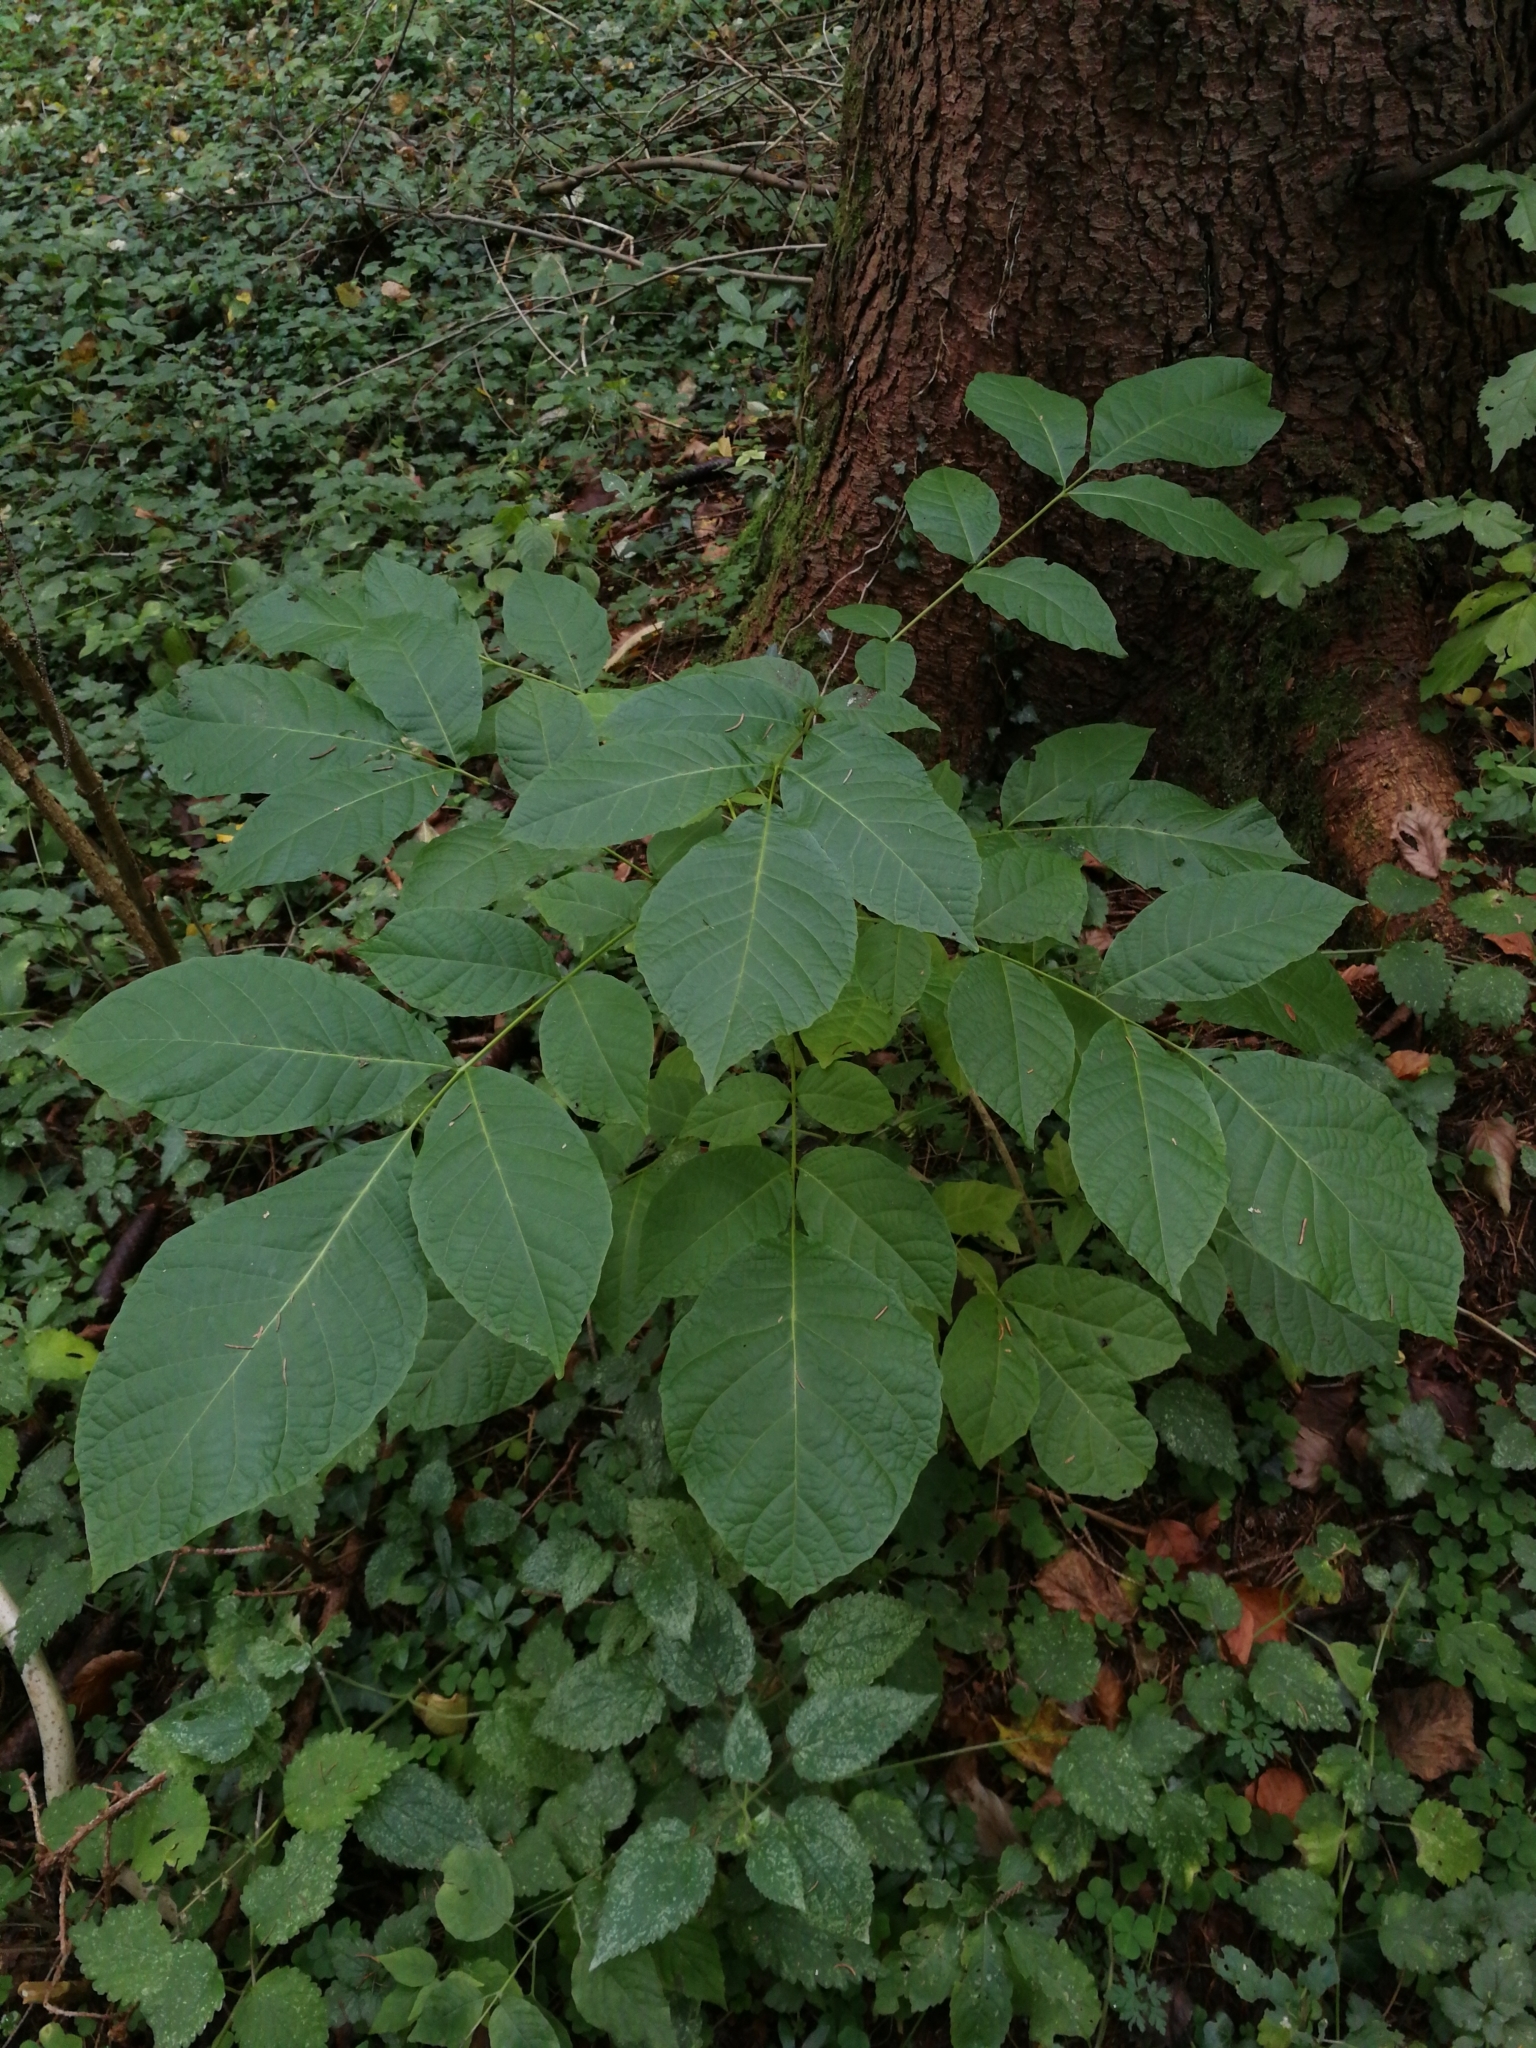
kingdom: Plantae
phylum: Tracheophyta
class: Magnoliopsida
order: Fagales
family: Juglandaceae
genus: Juglans
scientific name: Juglans regia
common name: Walnut
